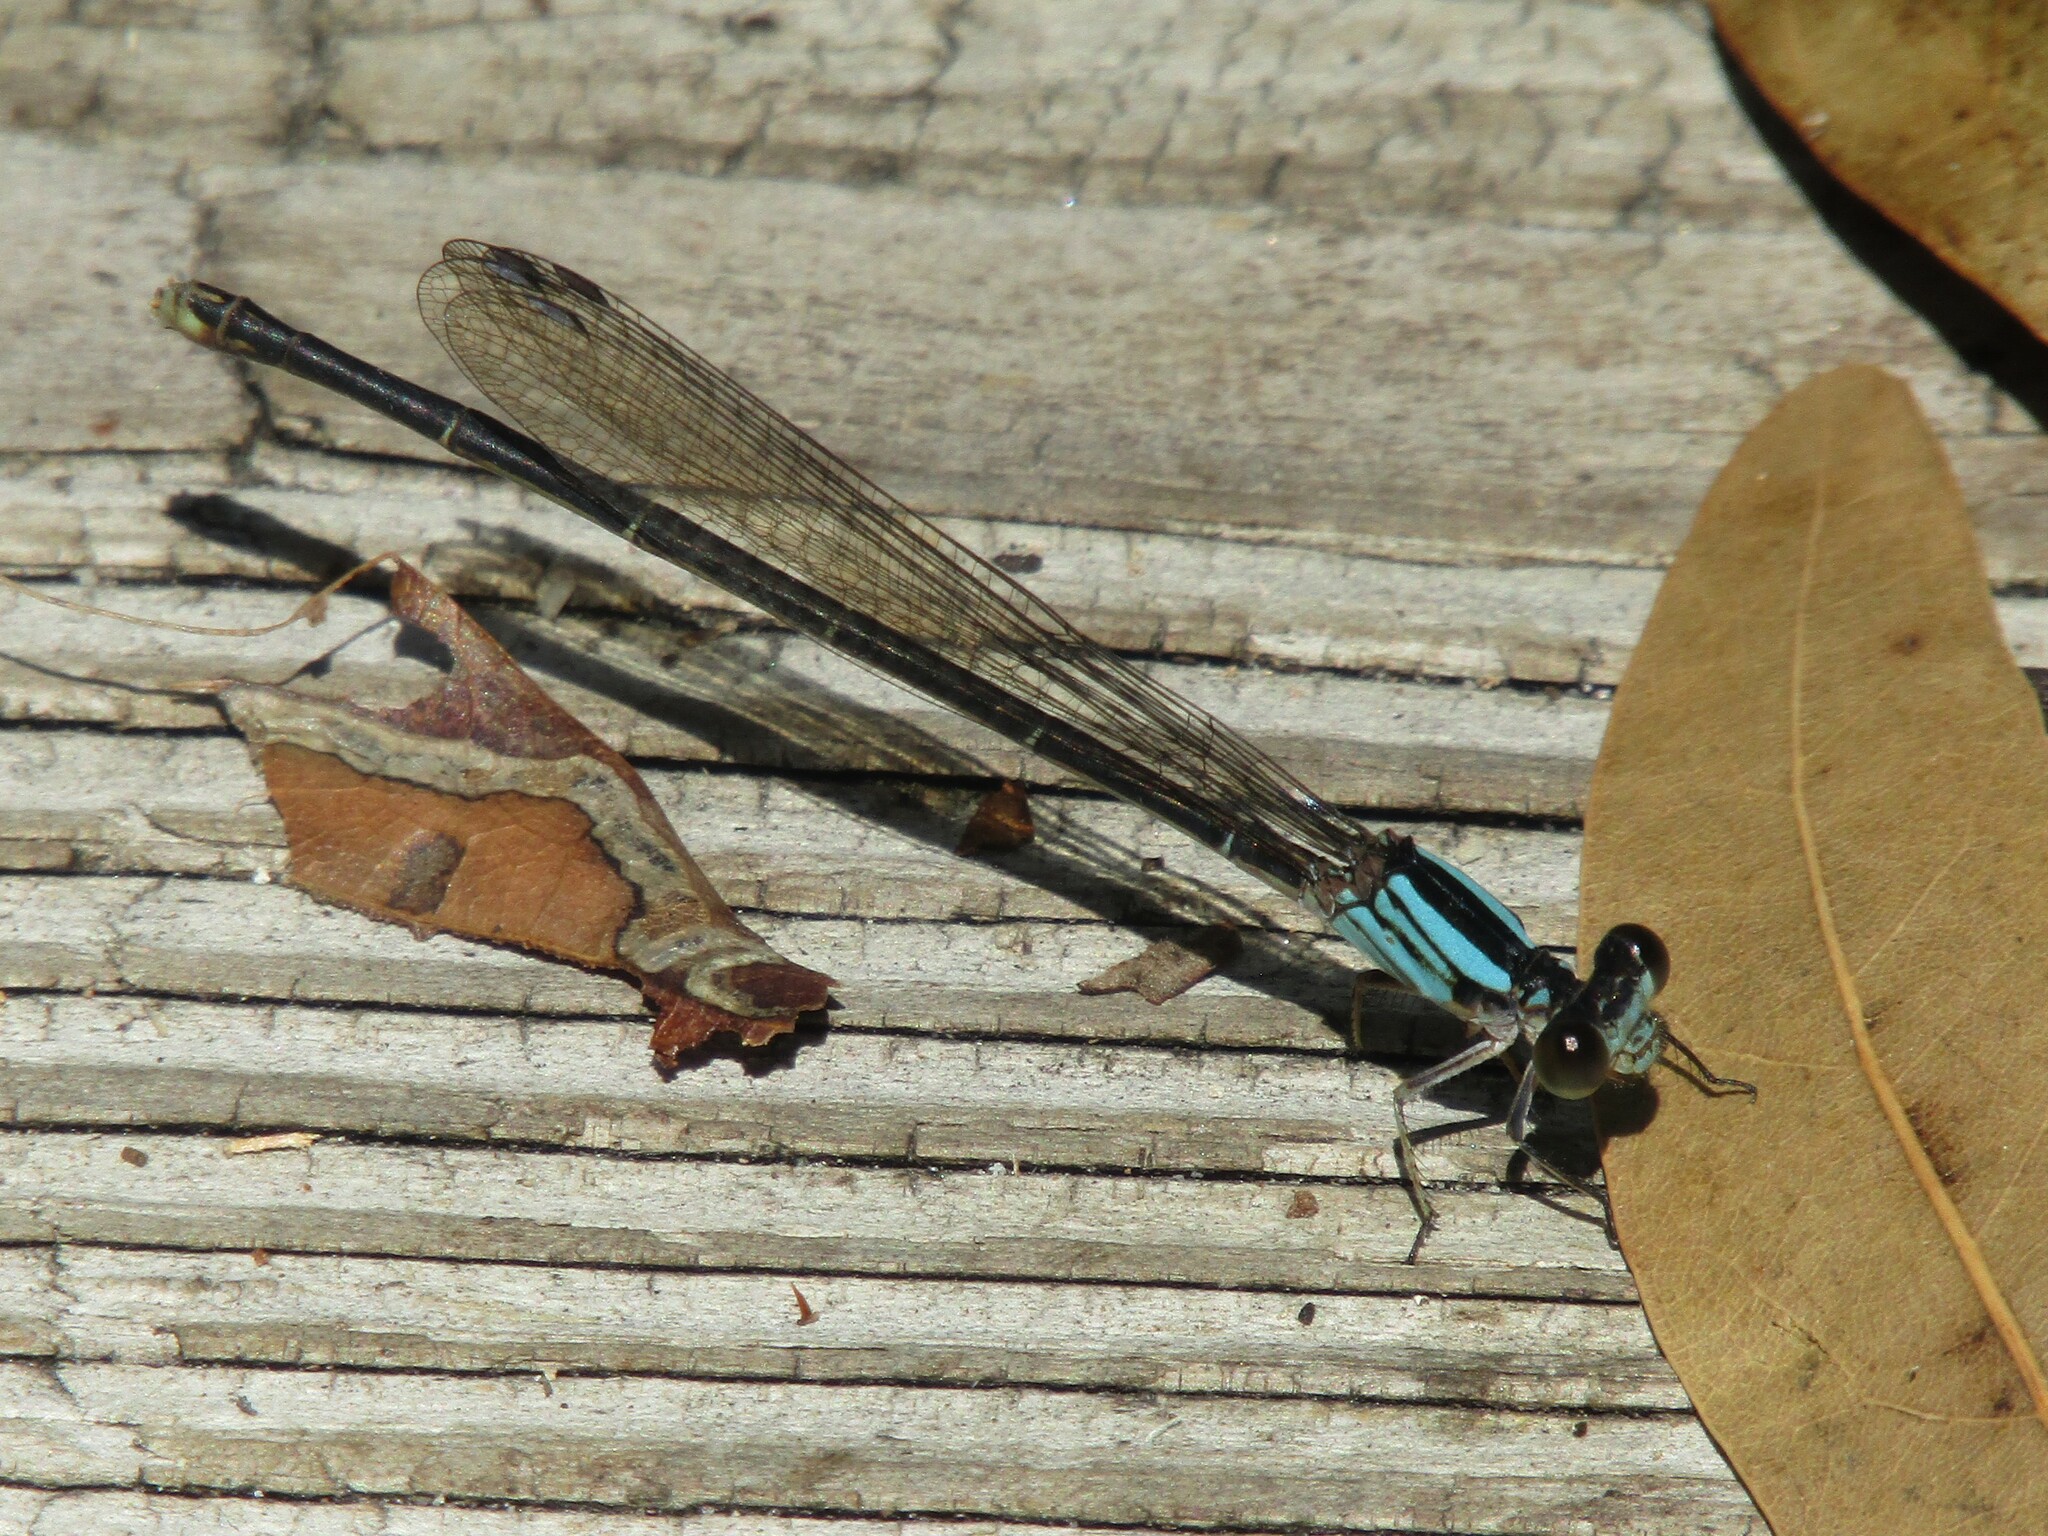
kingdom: Animalia
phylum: Arthropoda
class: Insecta
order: Odonata
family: Coenagrionidae
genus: Argia
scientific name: Argia moesta
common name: Powdered dancer
